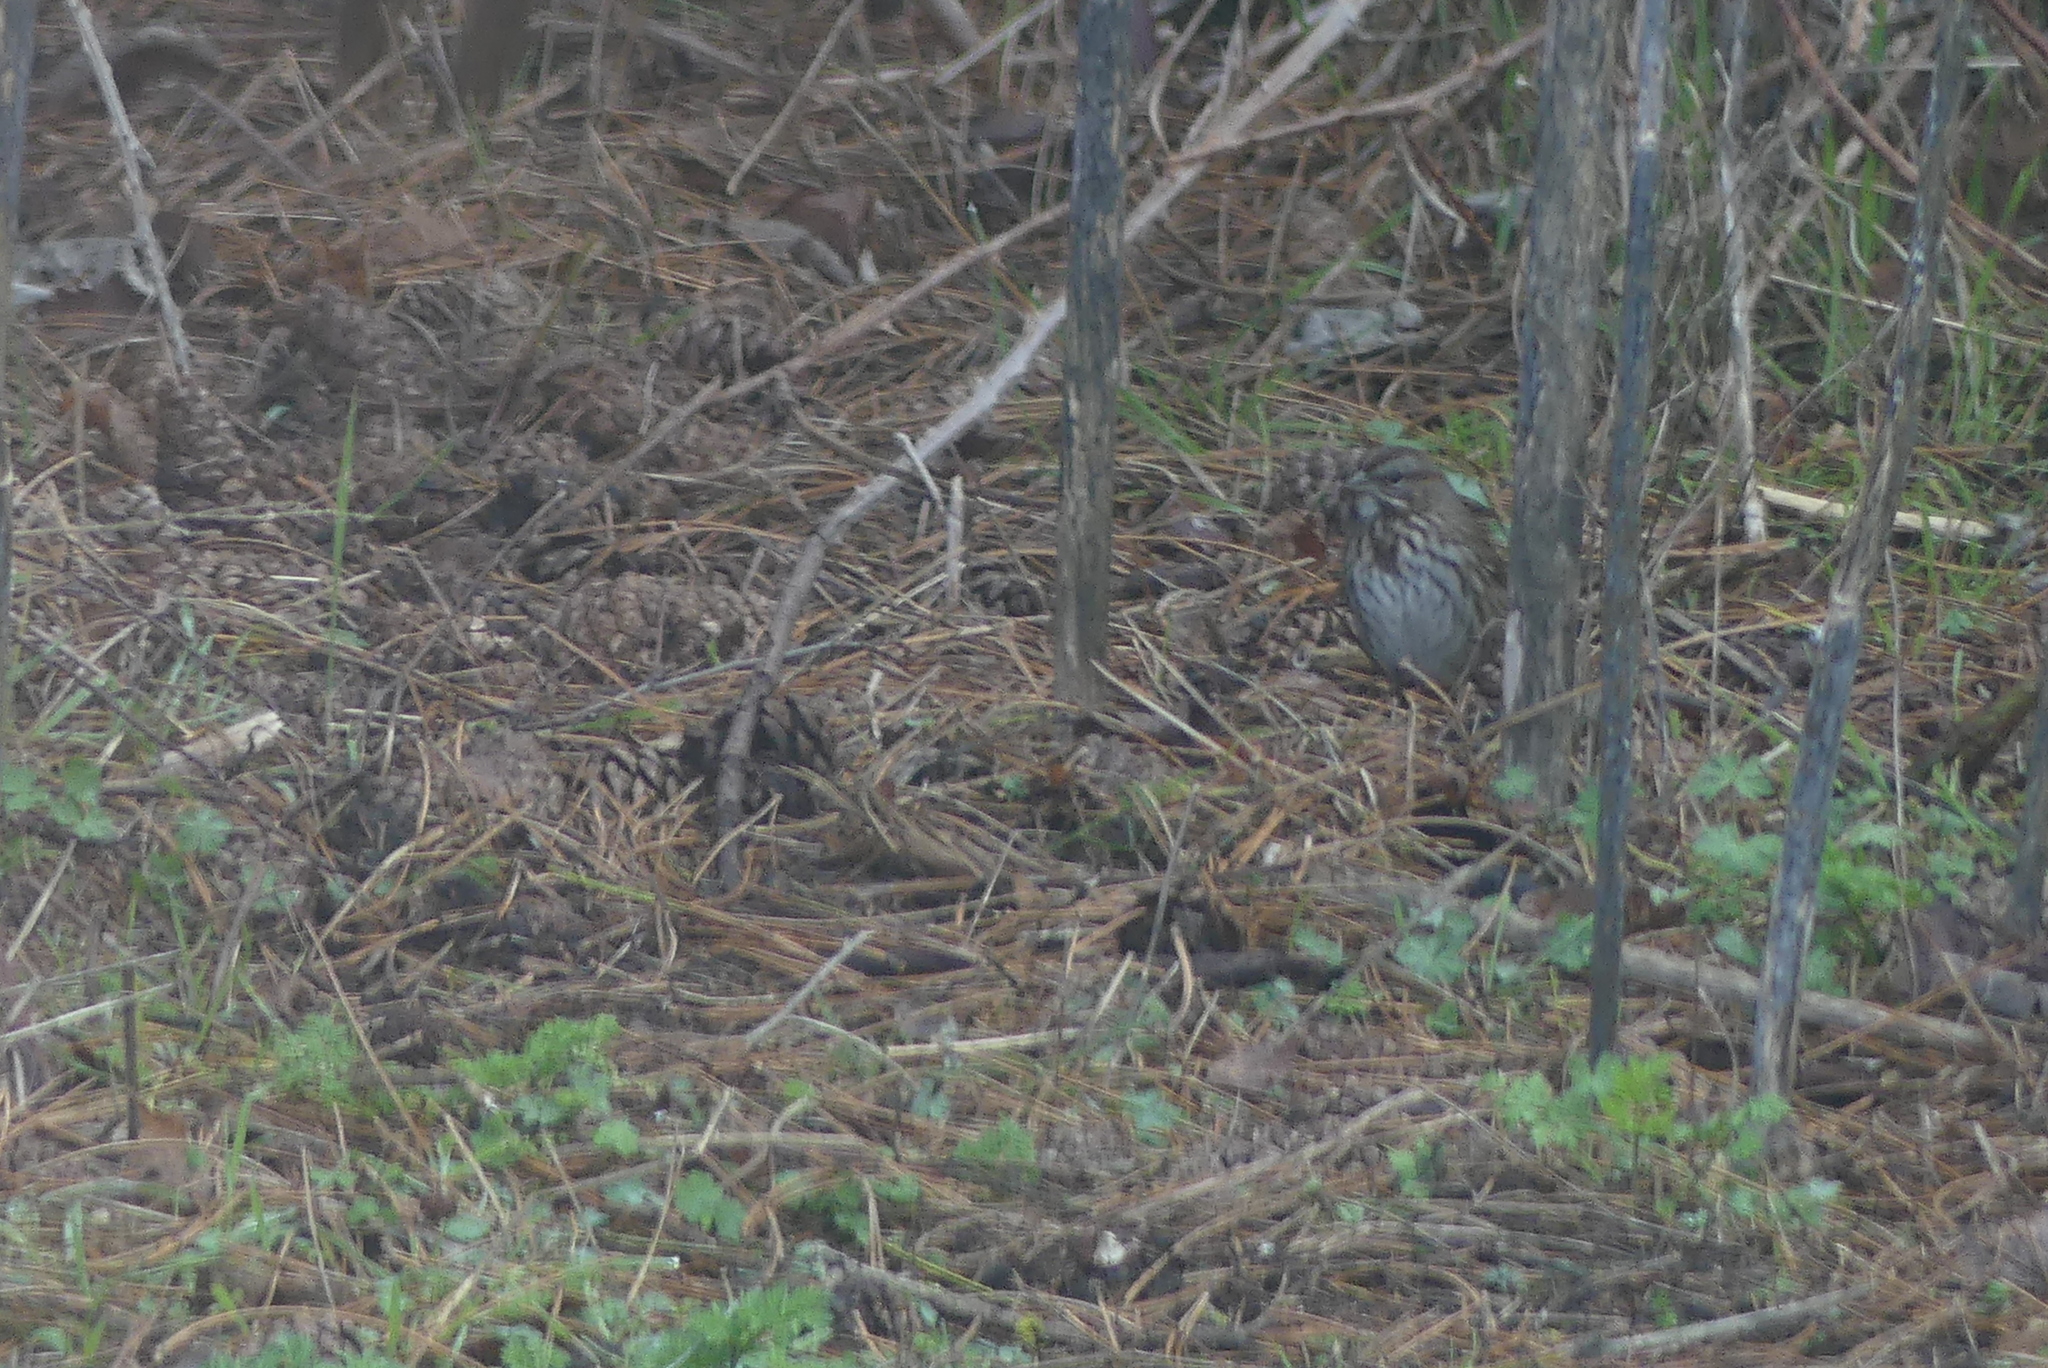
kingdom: Animalia
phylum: Chordata
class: Aves
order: Passeriformes
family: Passerellidae
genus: Melospiza
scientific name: Melospiza melodia
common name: Song sparrow
